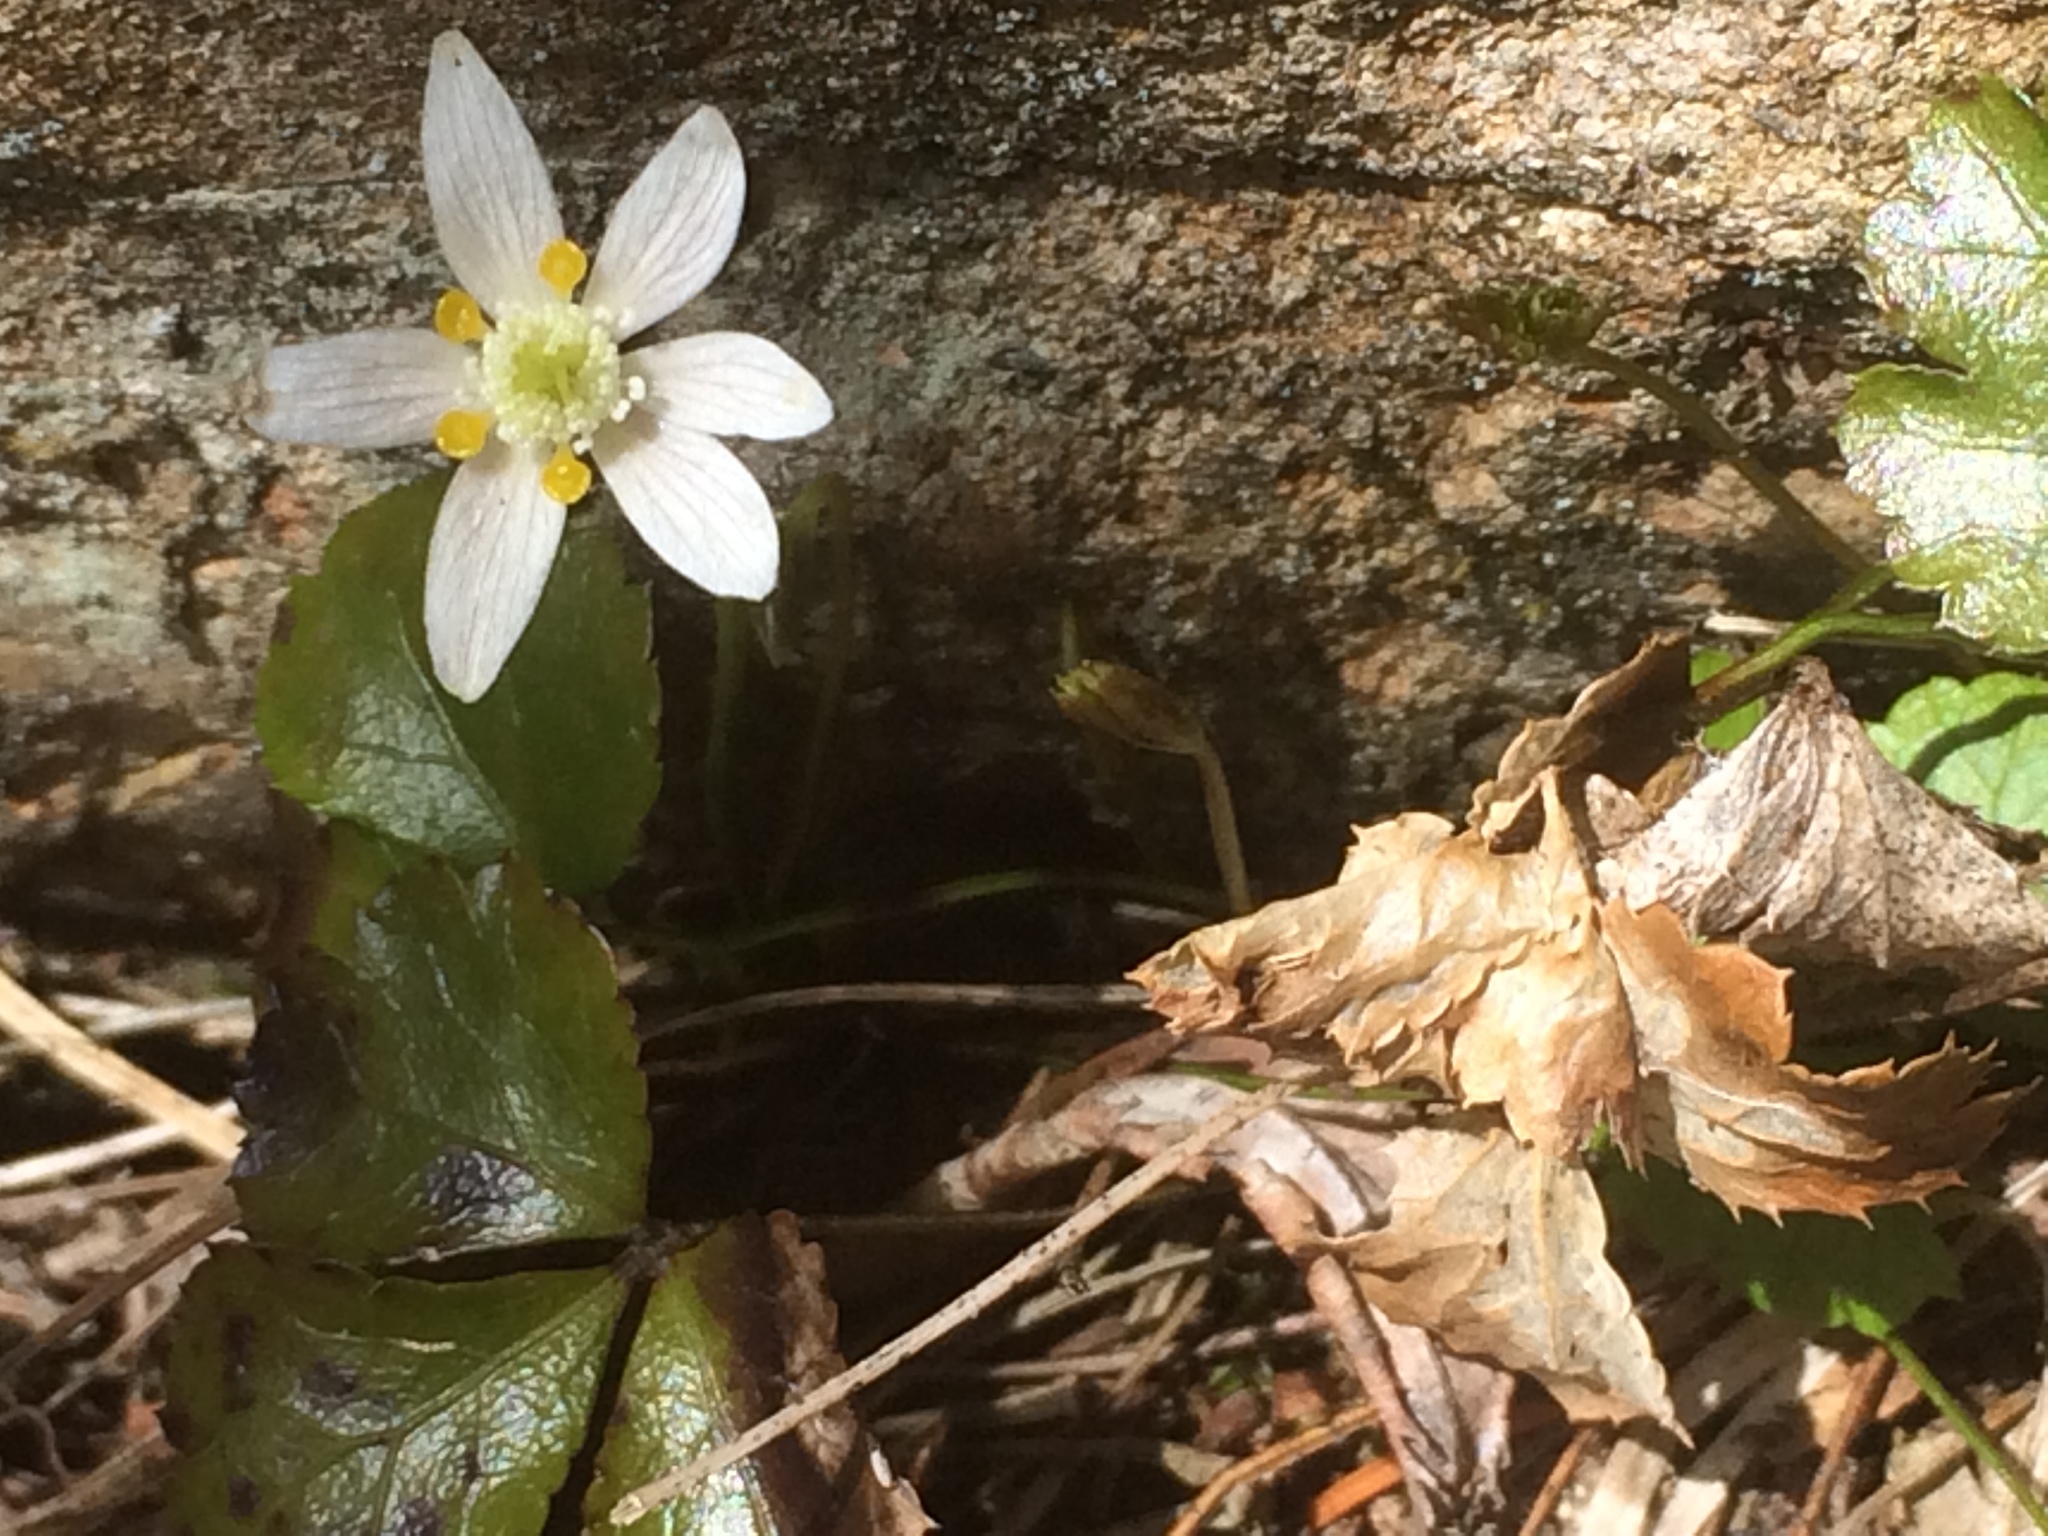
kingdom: Plantae
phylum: Tracheophyta
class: Magnoliopsida
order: Ranunculales
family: Ranunculaceae
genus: Coptis
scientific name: Coptis trifolia
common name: Canker-root
